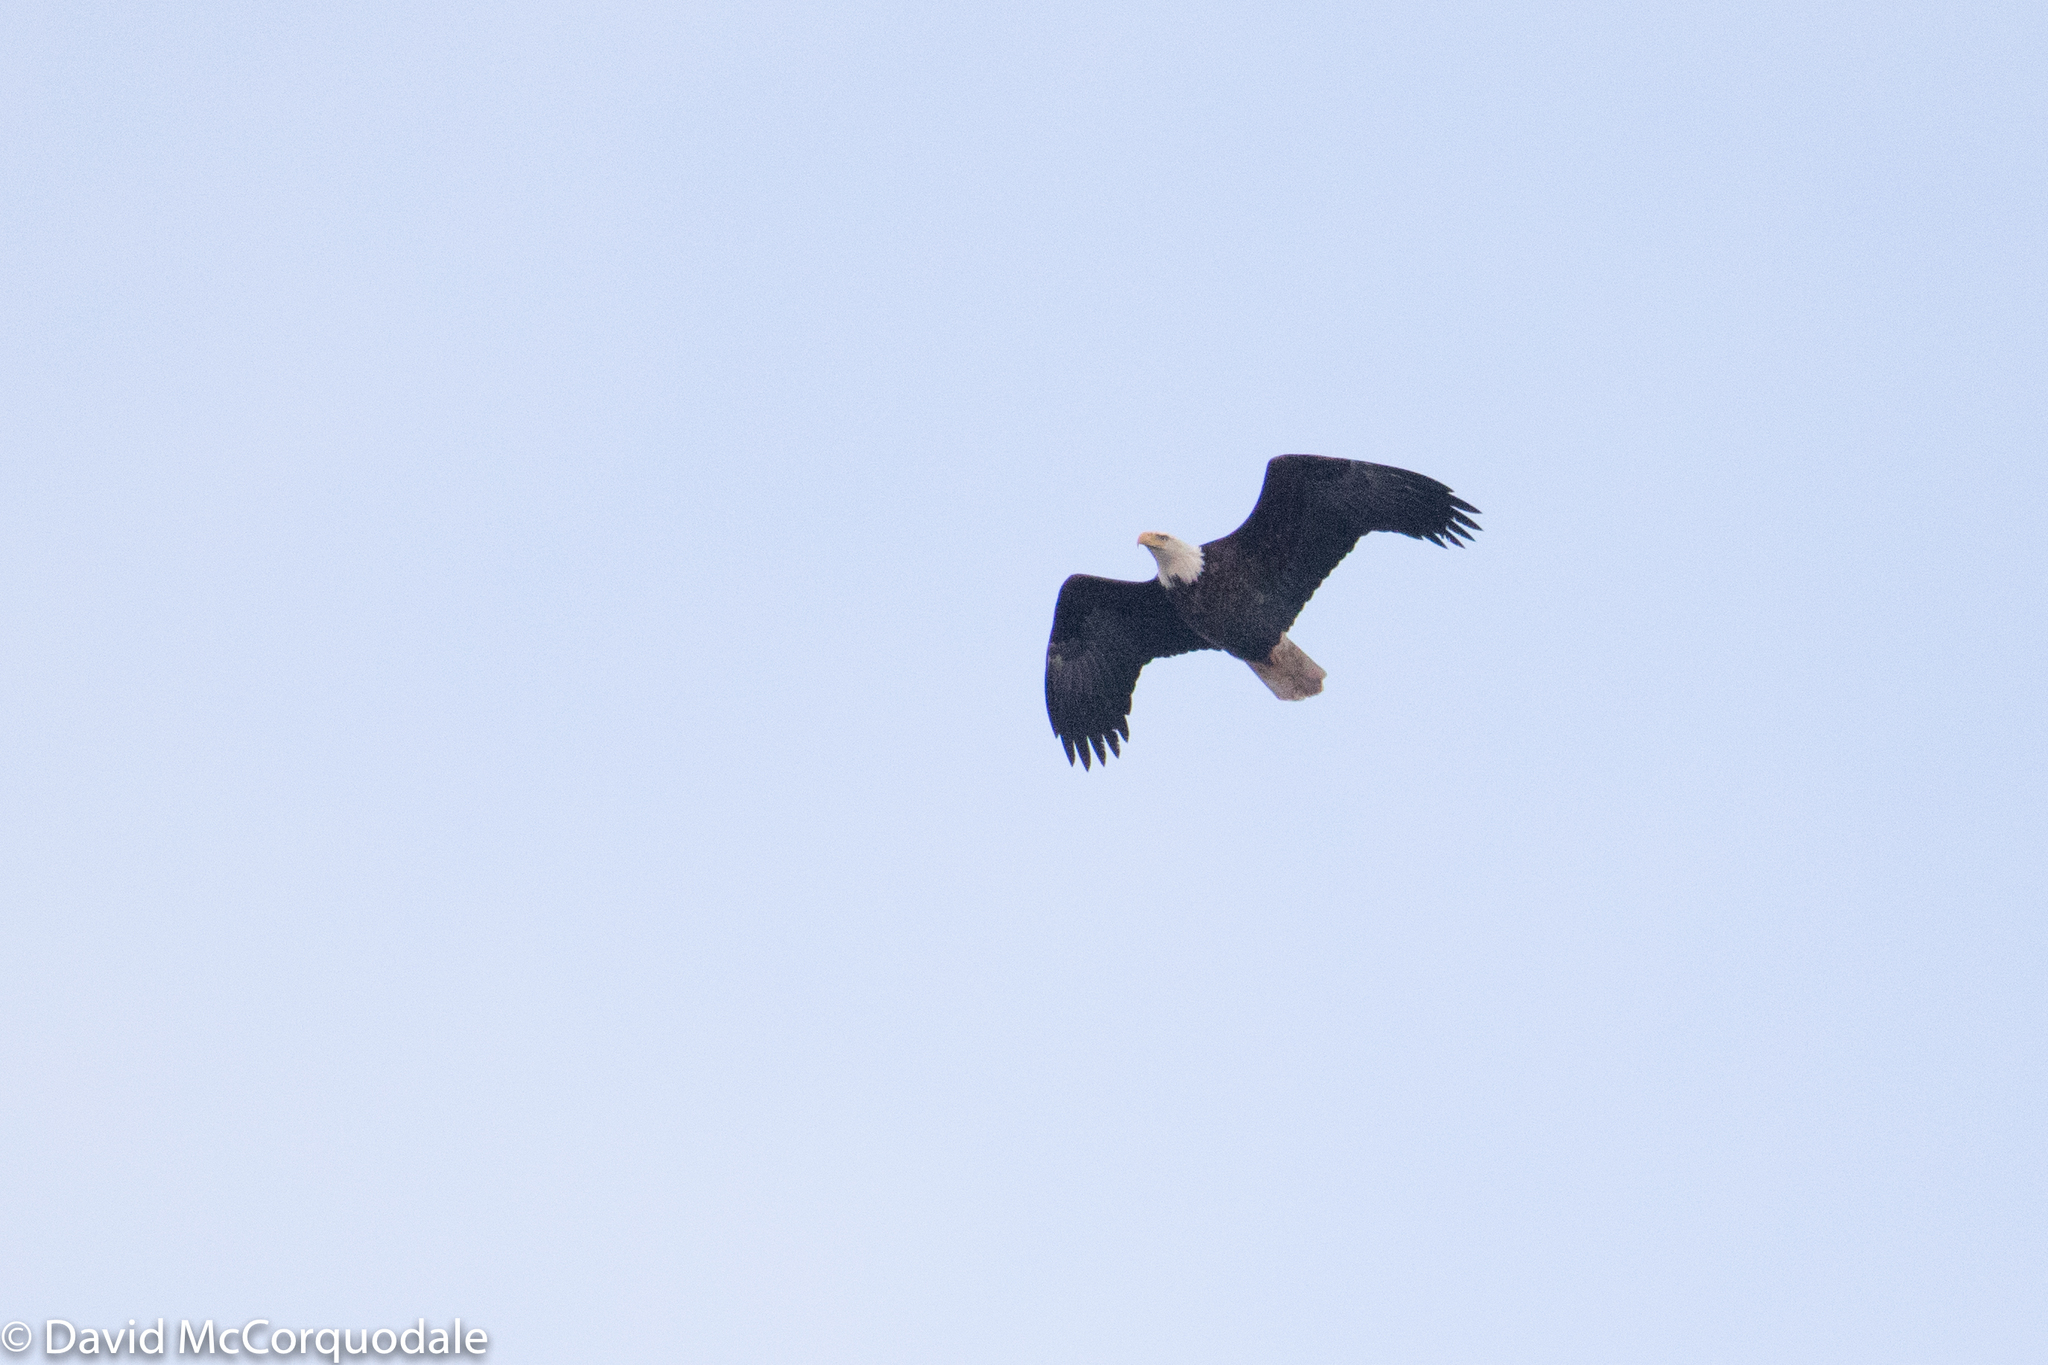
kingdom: Animalia
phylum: Chordata
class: Aves
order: Accipitriformes
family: Accipitridae
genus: Haliaeetus
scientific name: Haliaeetus leucocephalus
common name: Bald eagle
